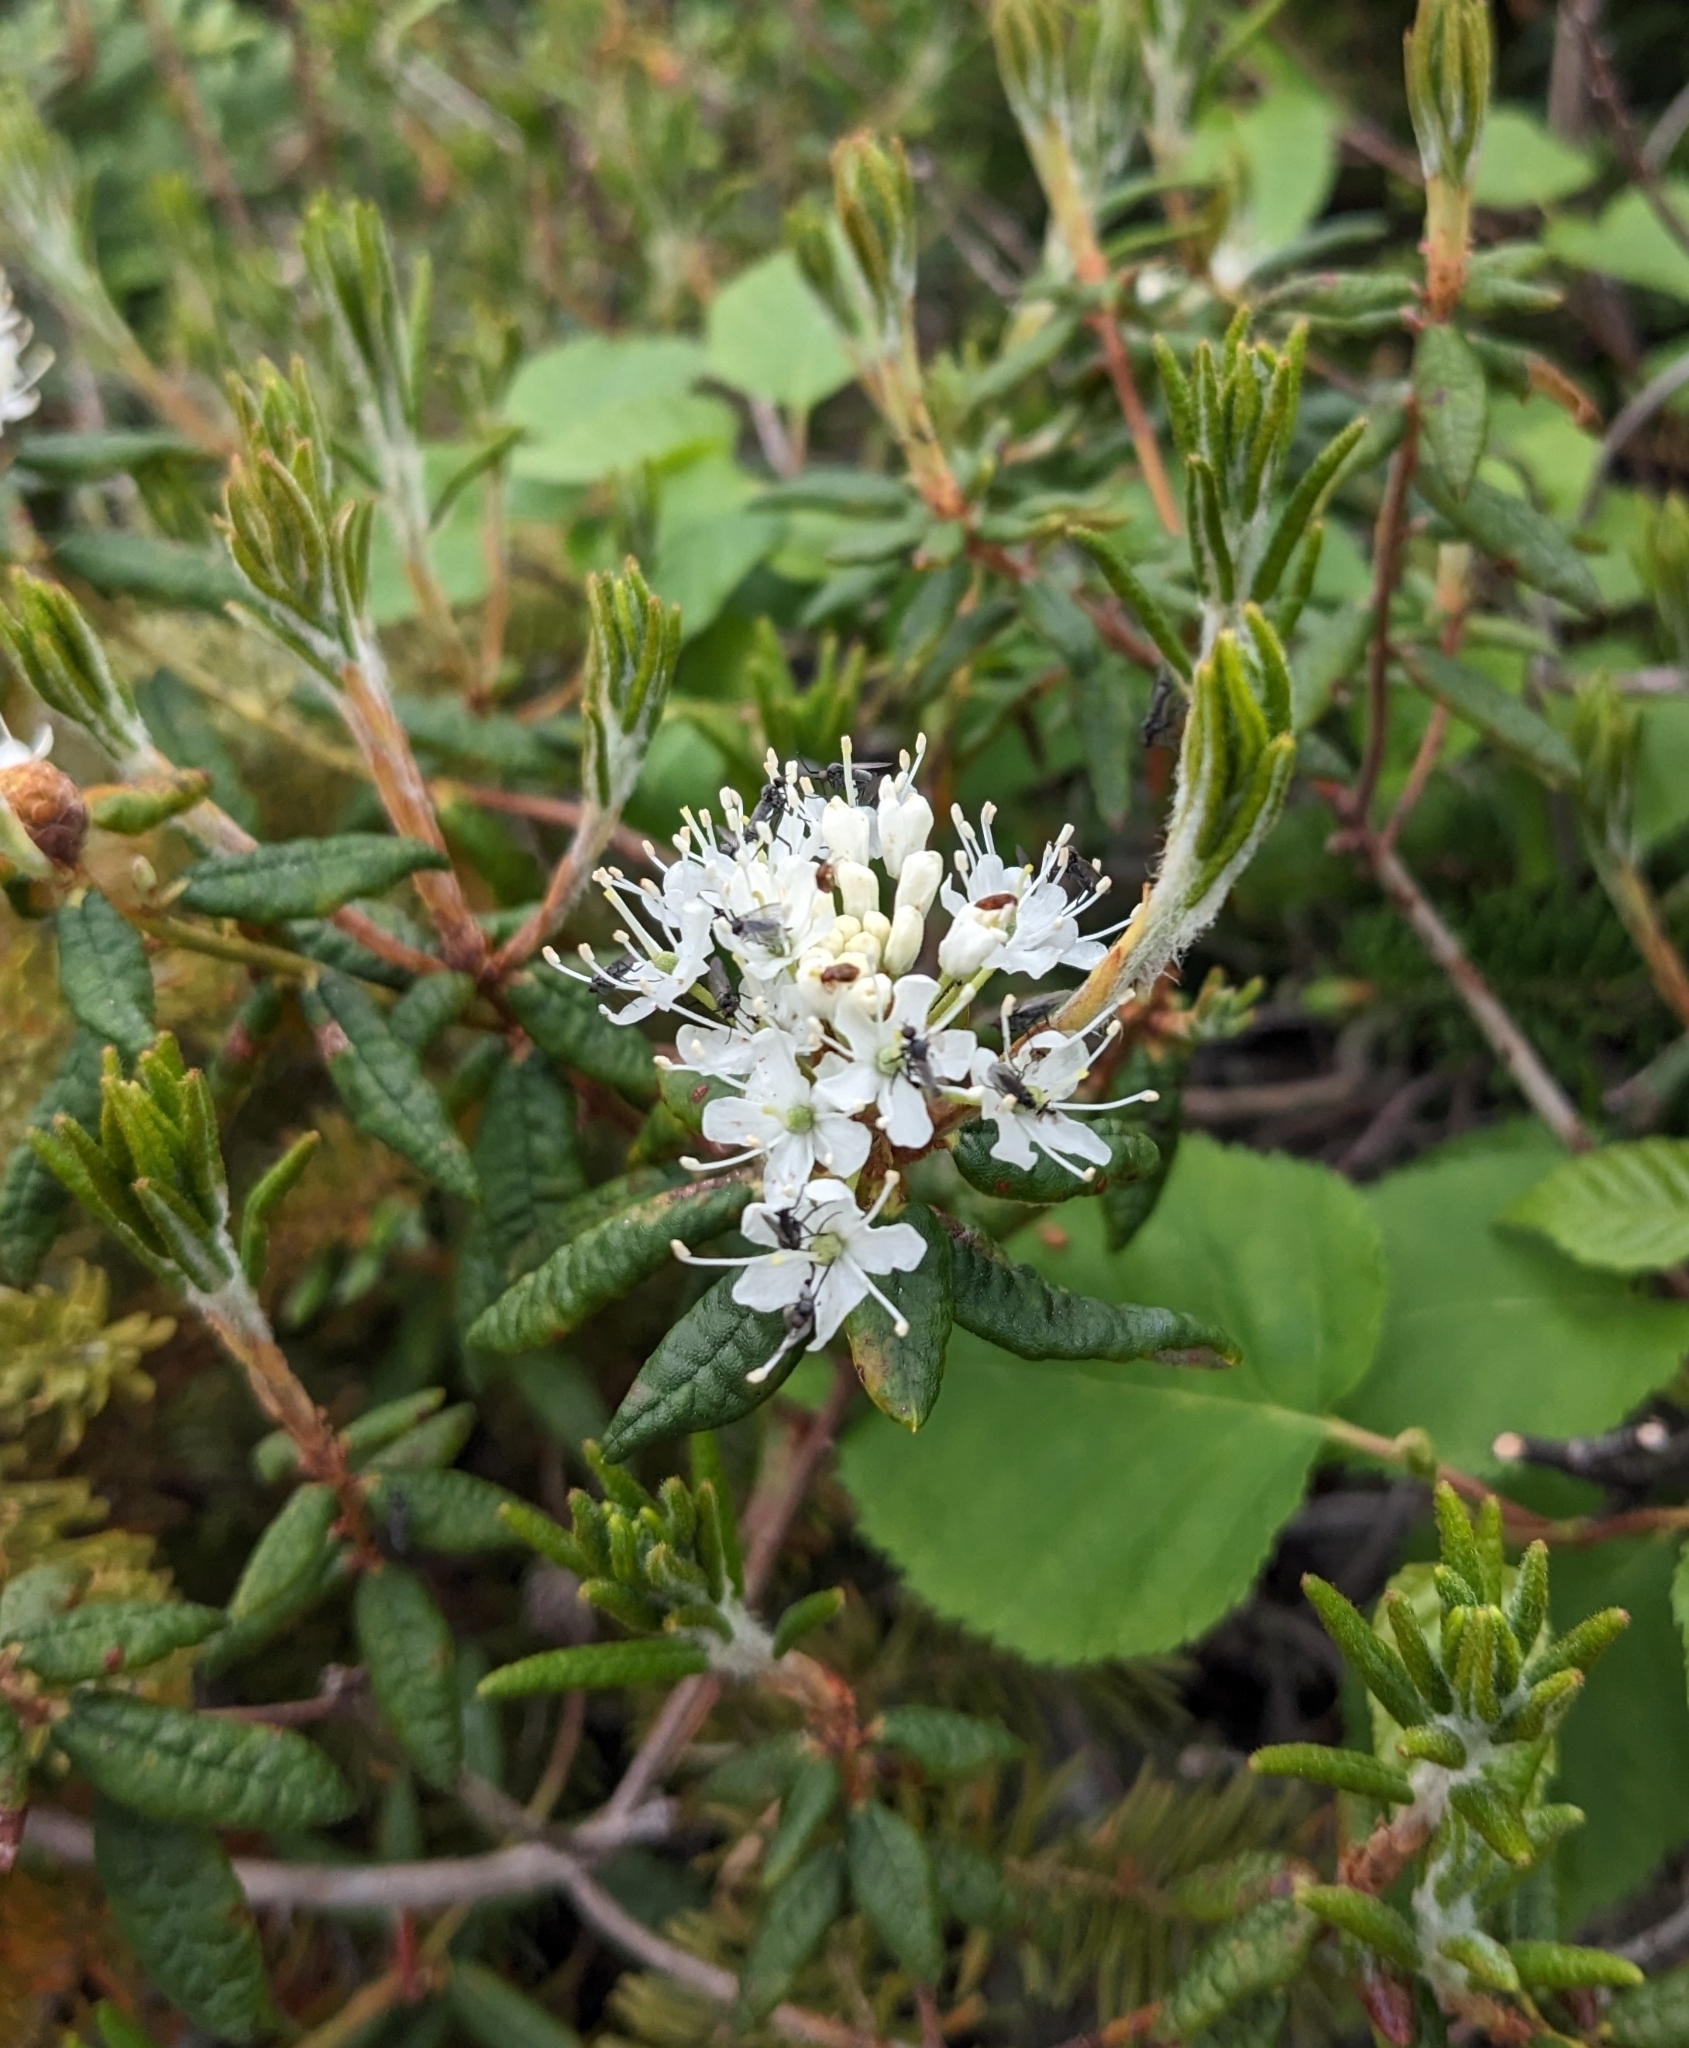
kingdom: Plantae
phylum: Tracheophyta
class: Magnoliopsida
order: Ericales
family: Ericaceae
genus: Rhododendron
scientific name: Rhododendron groenlandicum
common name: Bog labrador tea
